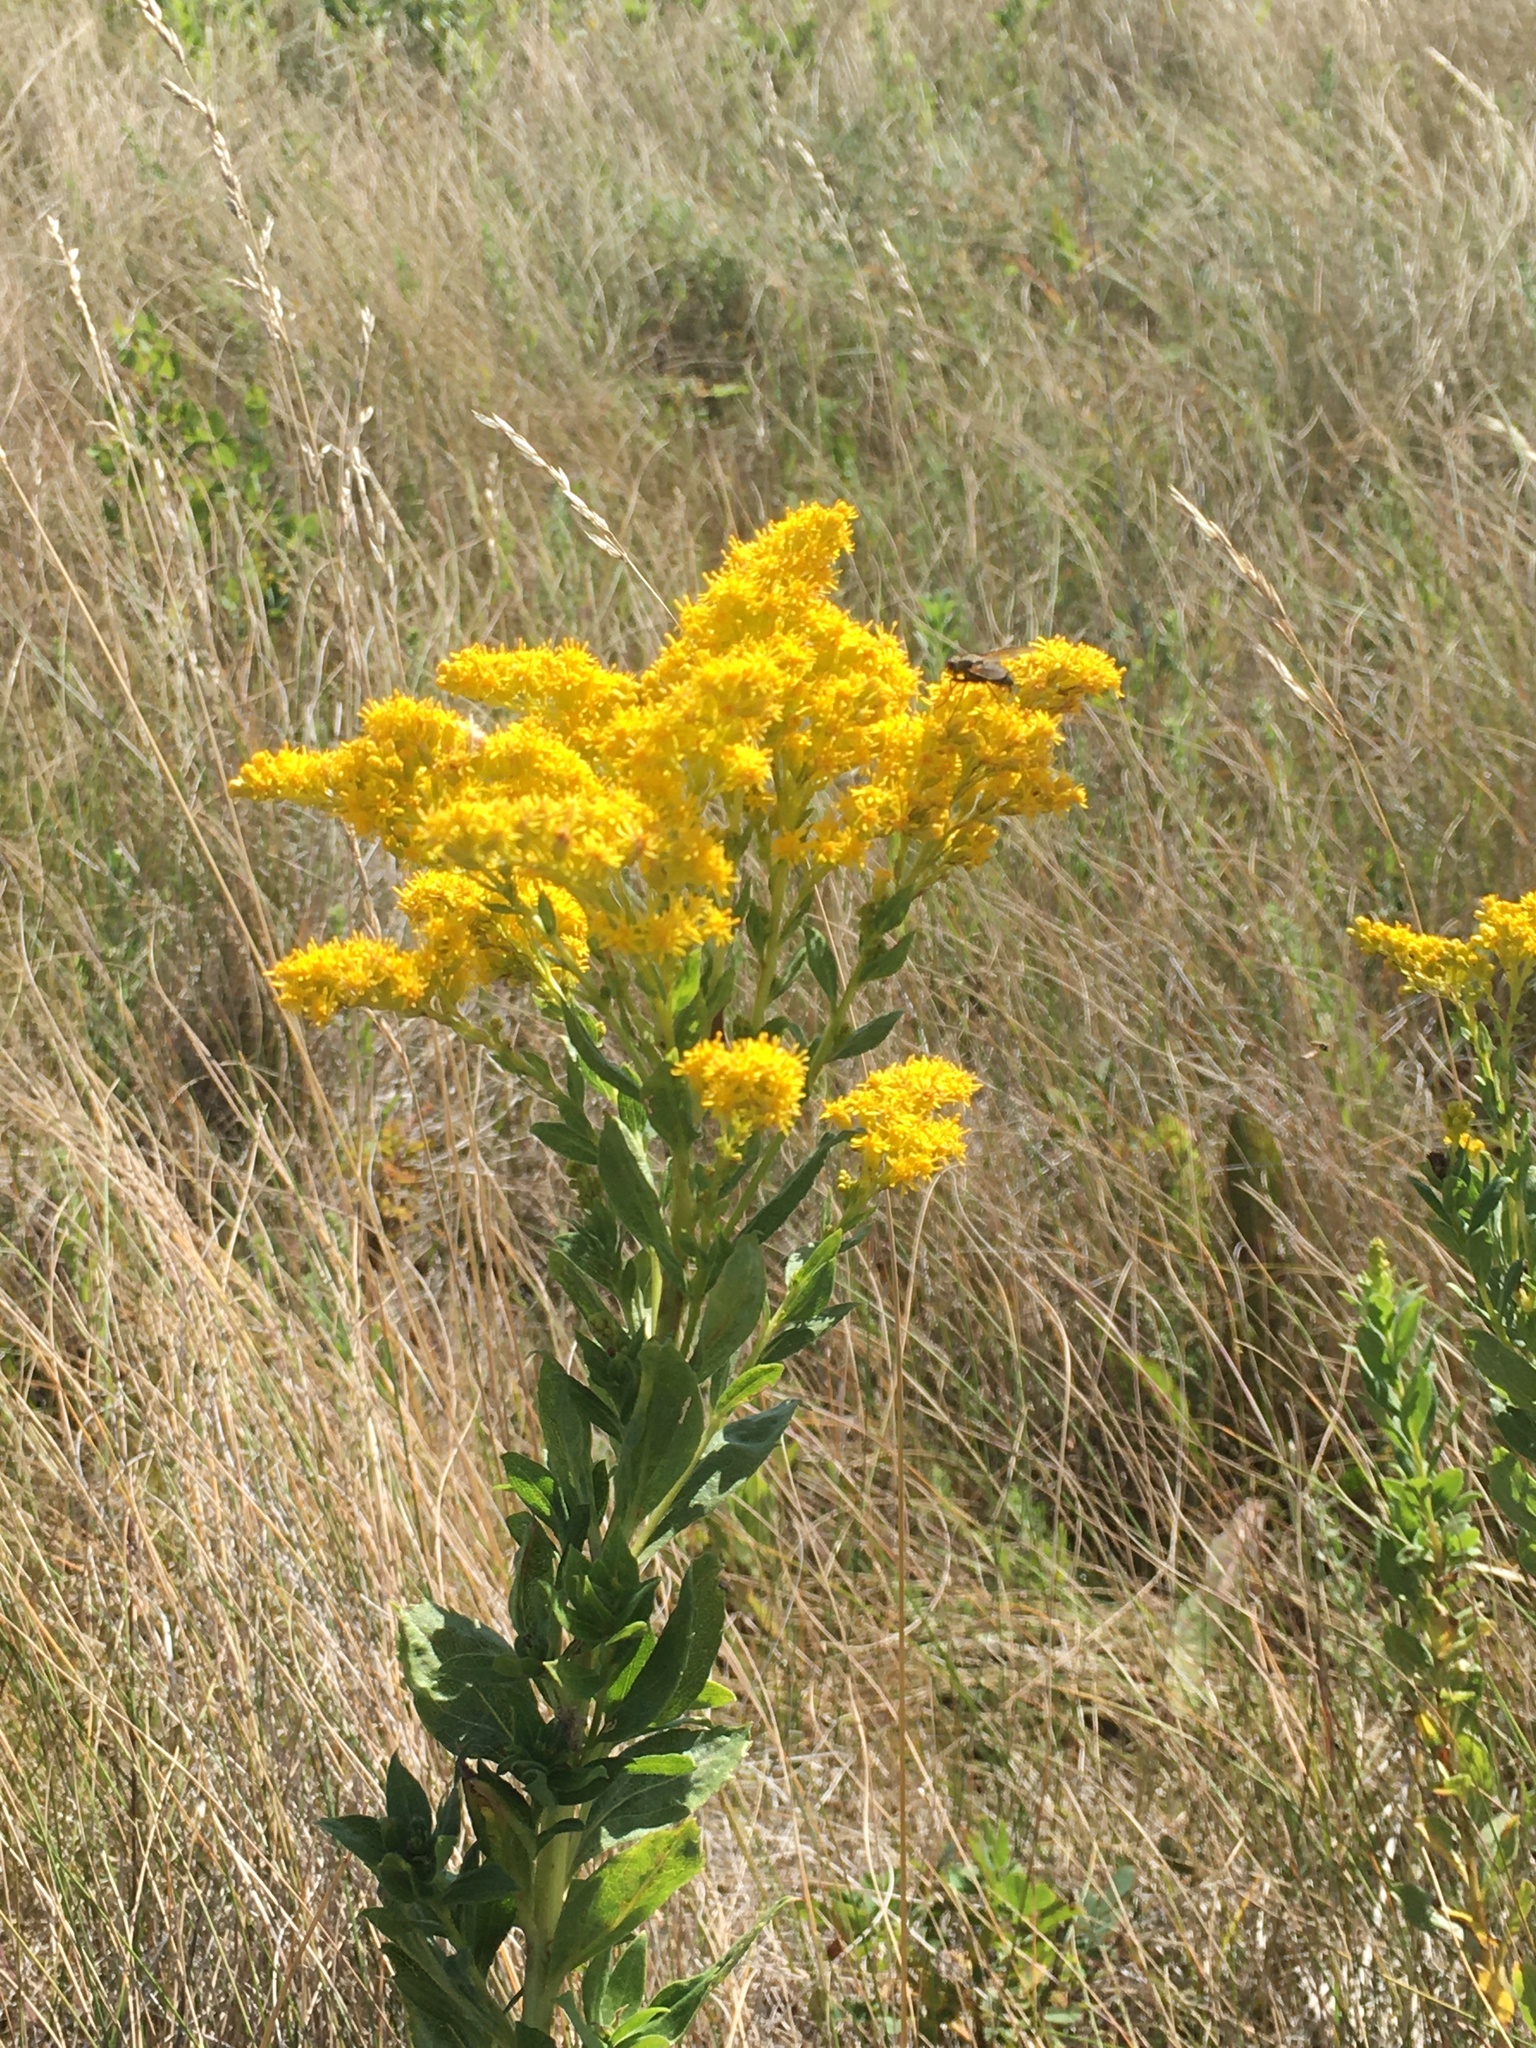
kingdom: Plantae
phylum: Tracheophyta
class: Magnoliopsida
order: Asterales
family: Asteraceae
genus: Solidago
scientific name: Solidago canadensis
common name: Canada goldenrod
